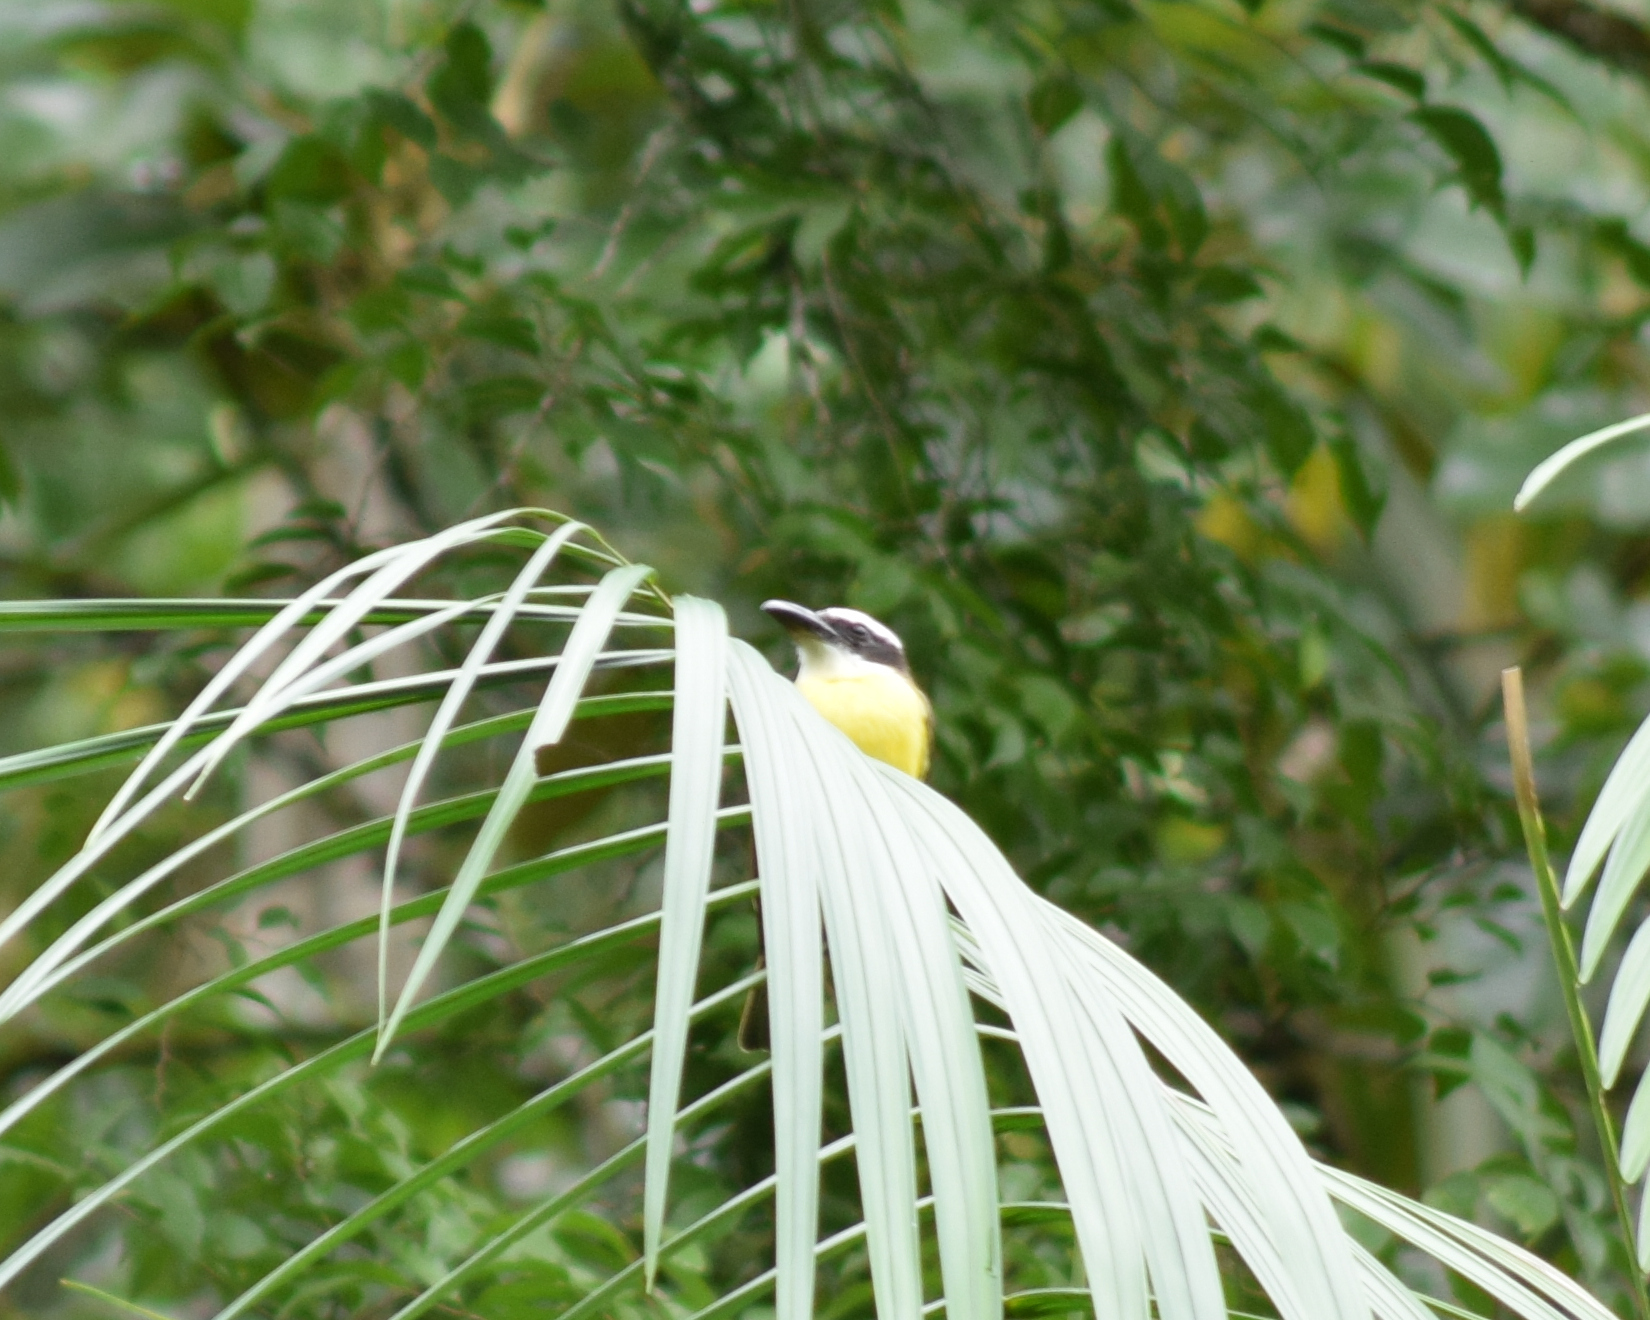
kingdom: Animalia
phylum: Chordata
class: Aves
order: Passeriformes
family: Tyrannidae
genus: Megarynchus
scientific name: Megarynchus pitangua
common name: Boat-billed flycatcher
